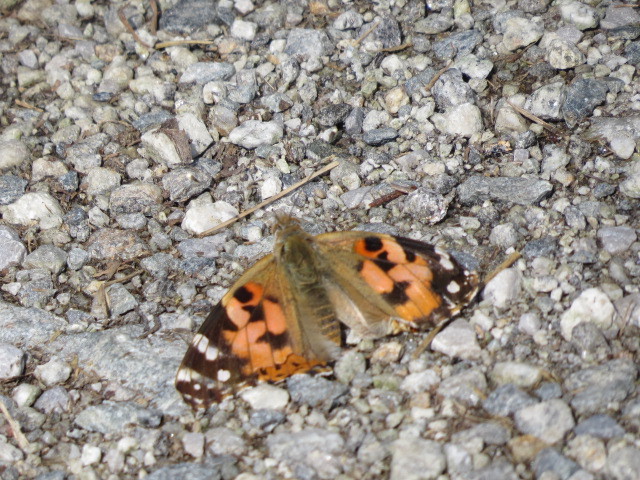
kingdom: Animalia
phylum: Arthropoda
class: Insecta
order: Lepidoptera
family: Nymphalidae
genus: Vanessa
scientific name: Vanessa cardui
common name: Painted lady
